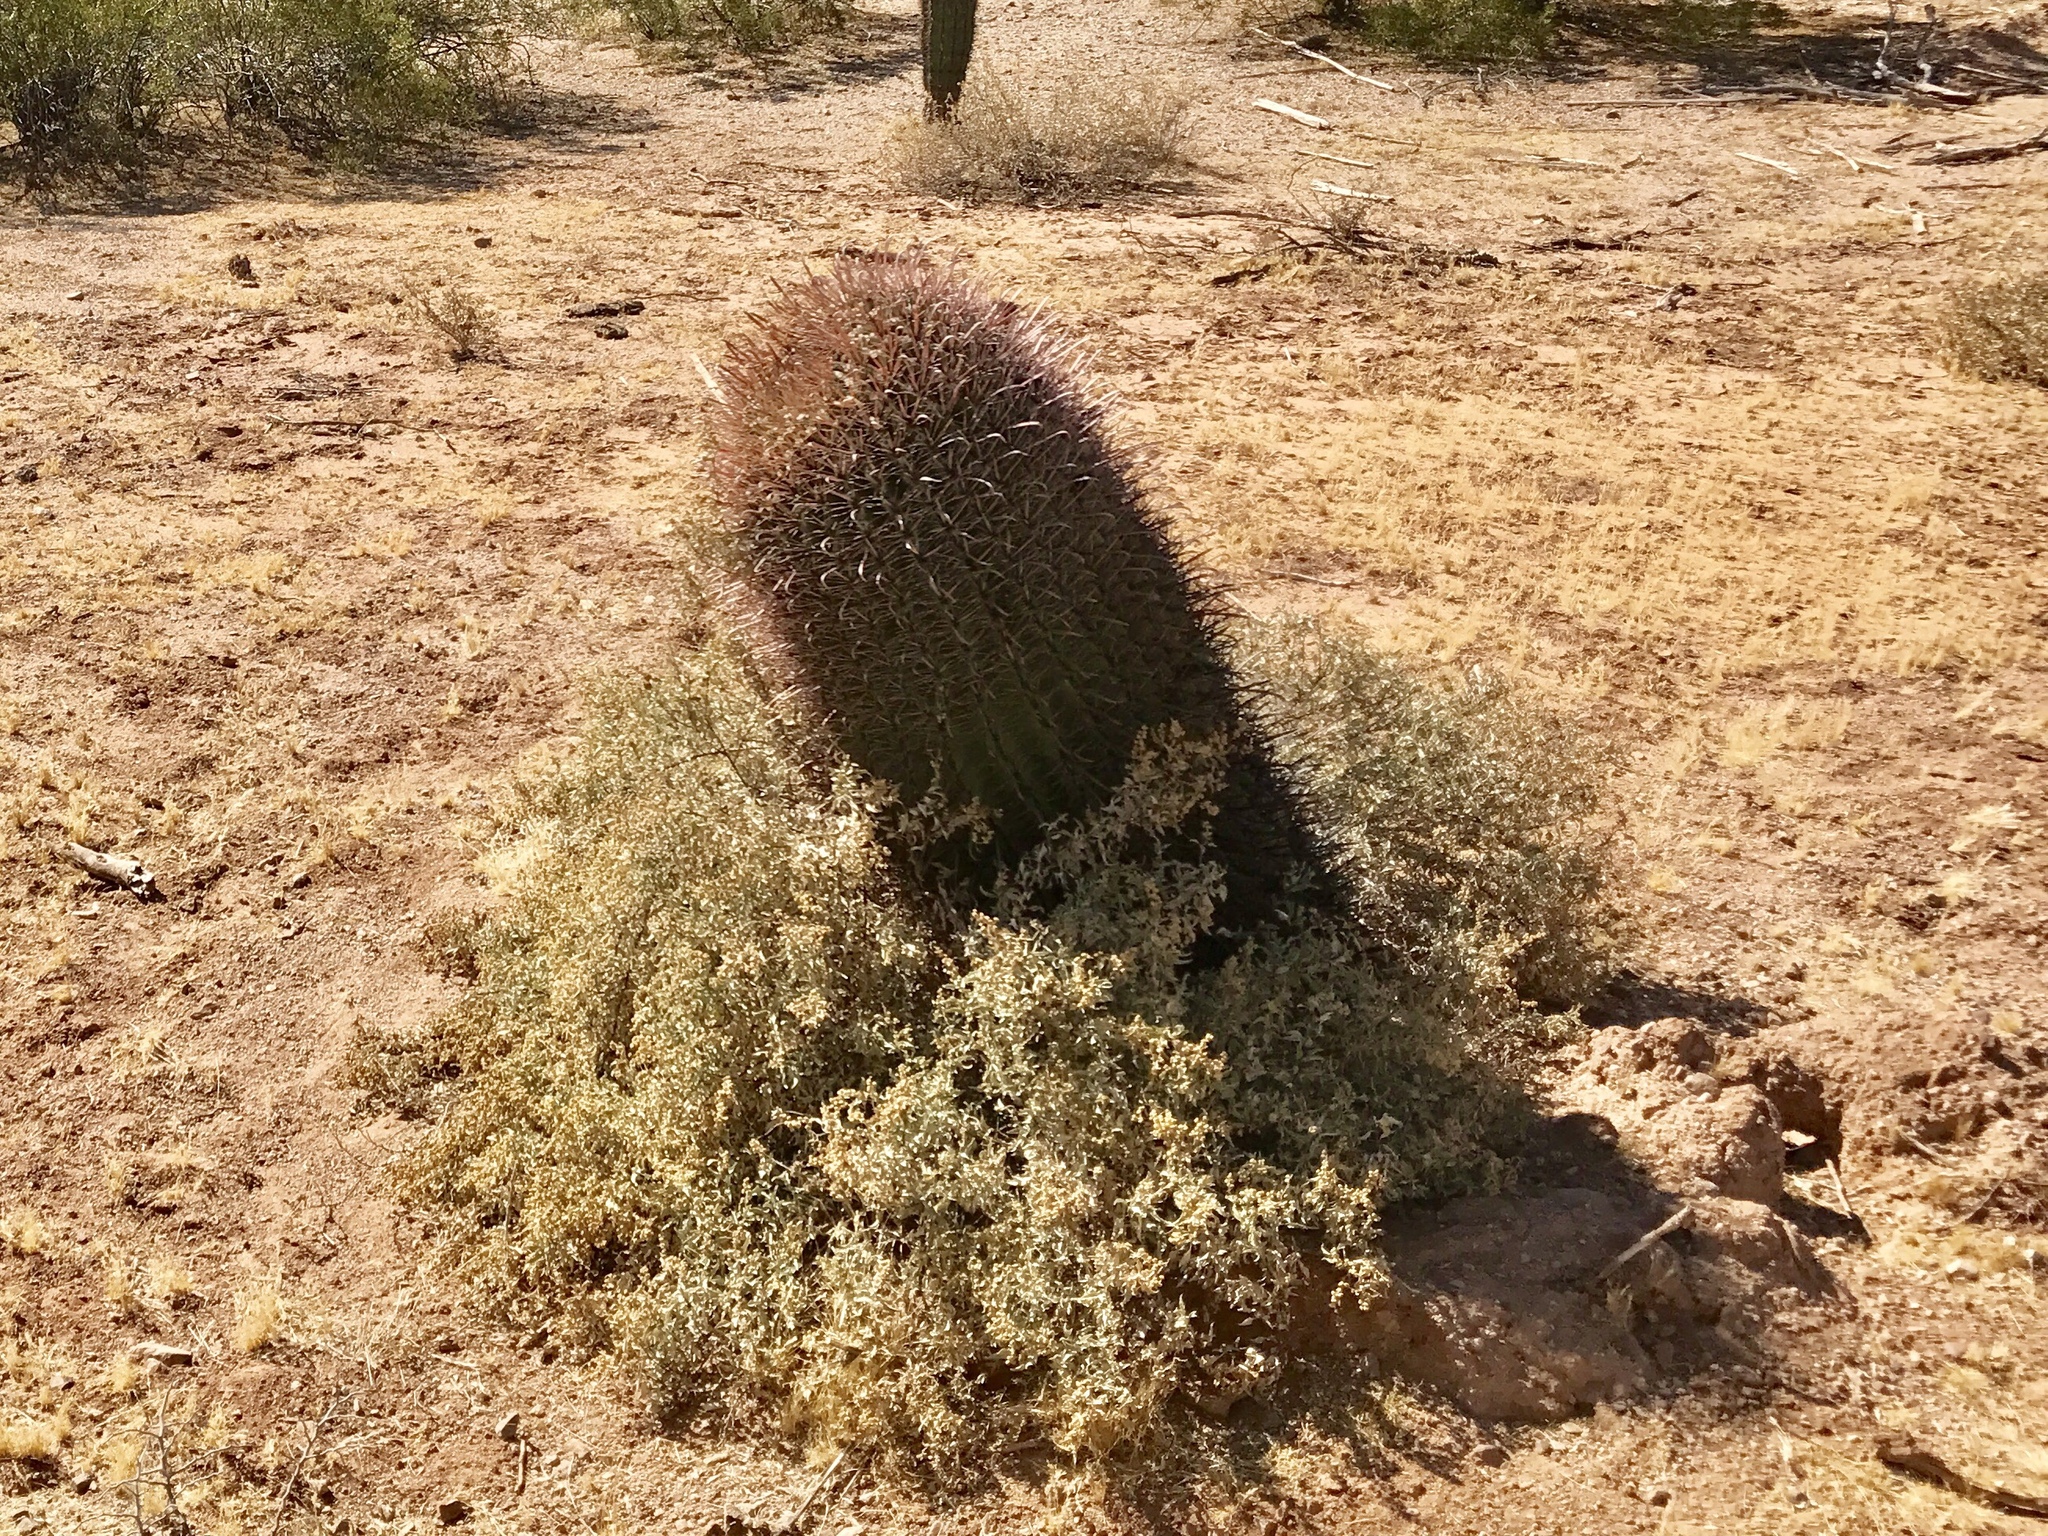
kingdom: Plantae
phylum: Tracheophyta
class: Magnoliopsida
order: Asterales
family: Asteraceae
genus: Ambrosia
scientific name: Ambrosia deltoidea
